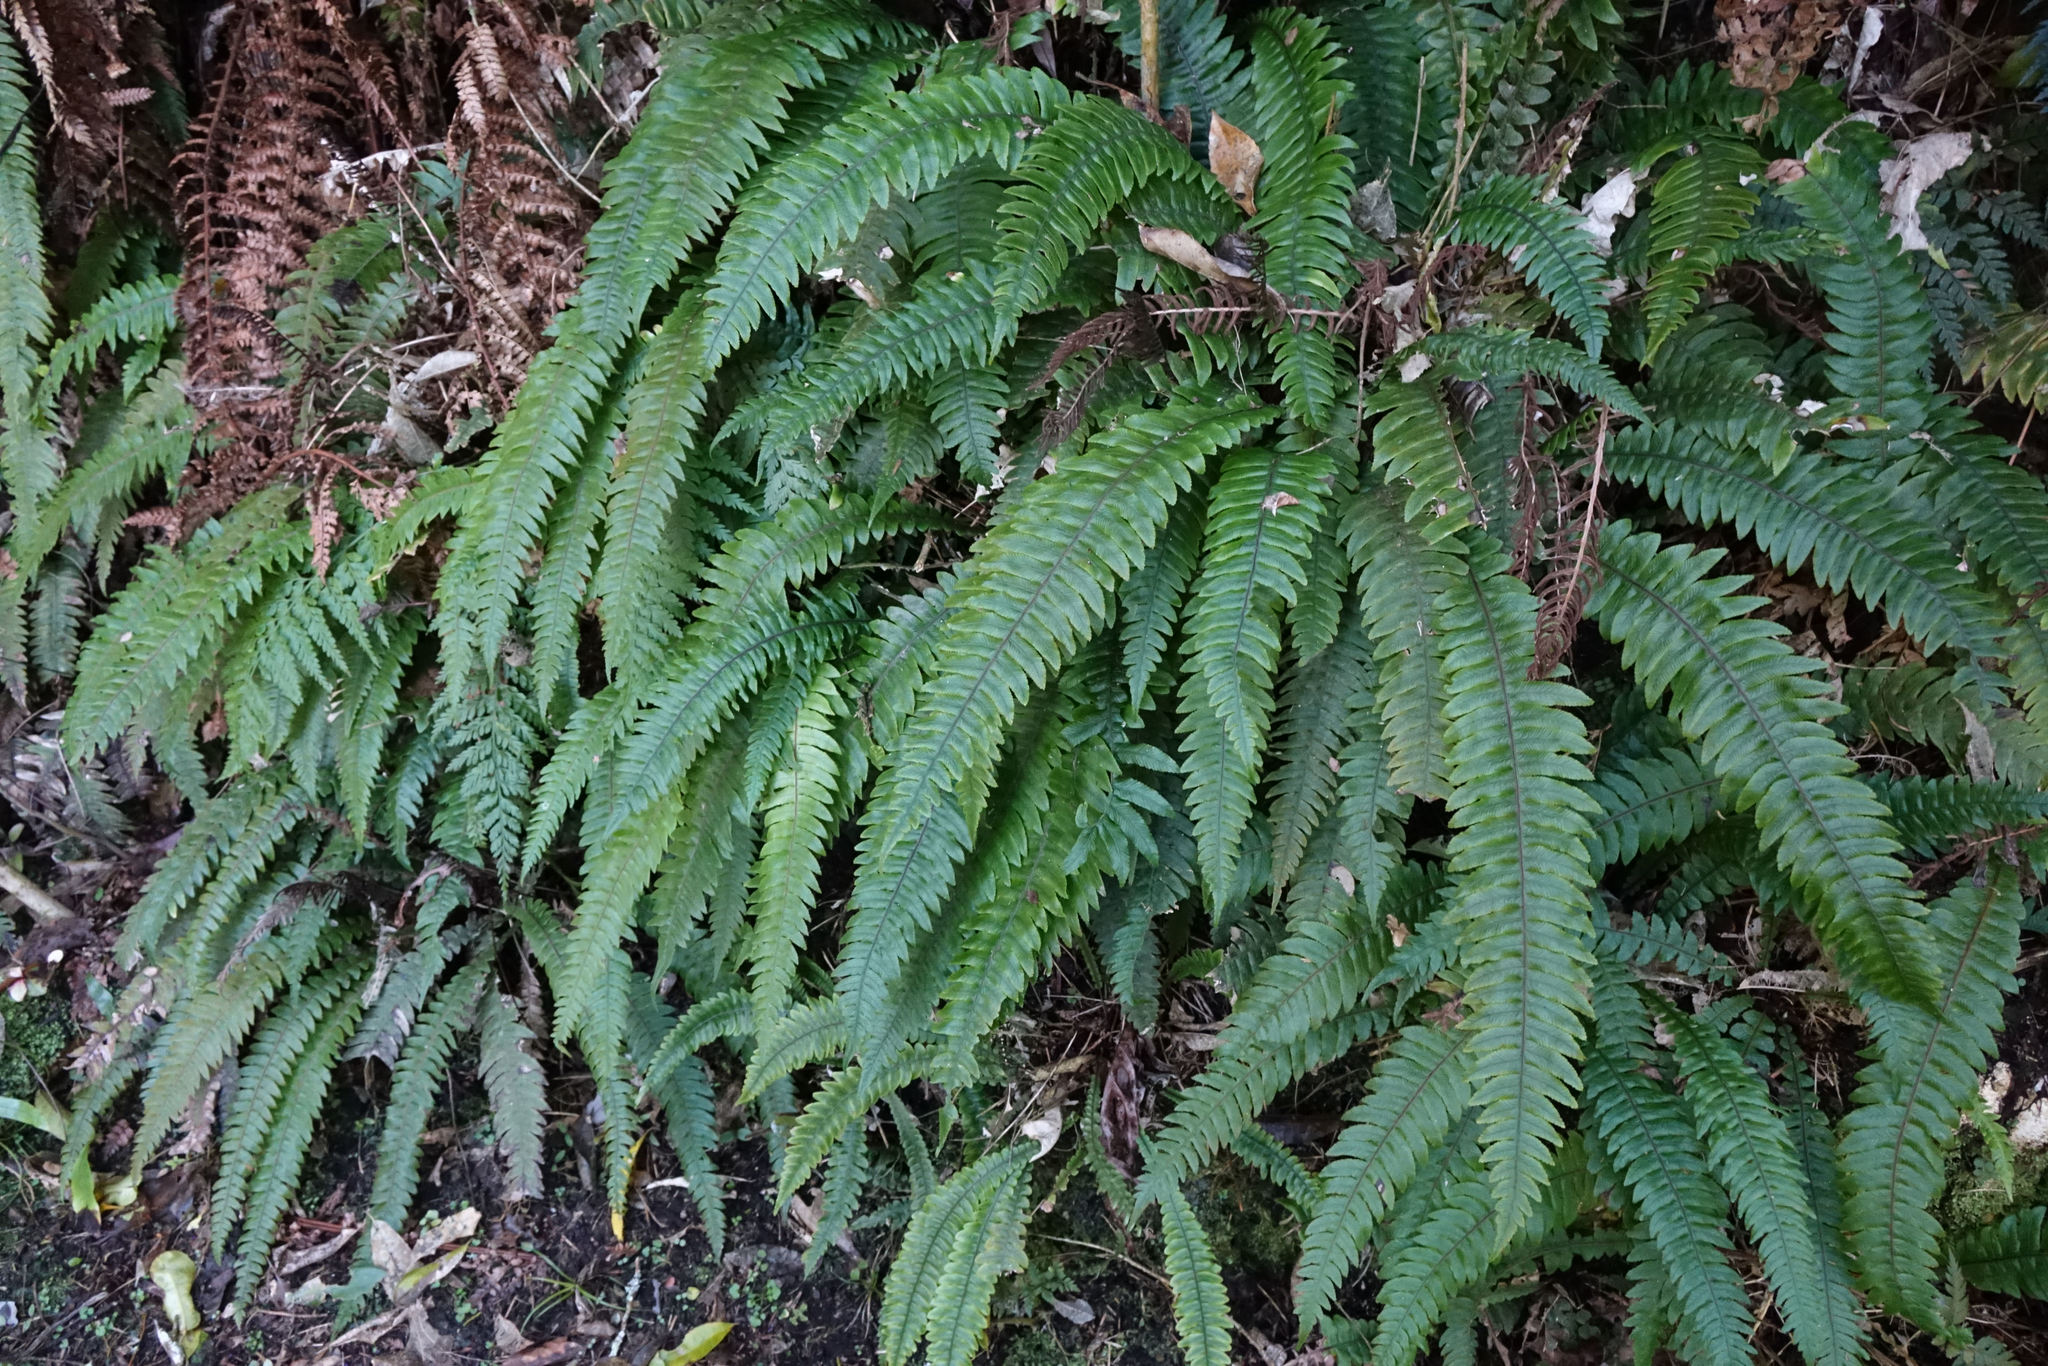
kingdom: Plantae
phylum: Tracheophyta
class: Polypodiopsida
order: Polypodiales
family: Blechnaceae
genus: Austroblechnum
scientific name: Austroblechnum lanceolatum
